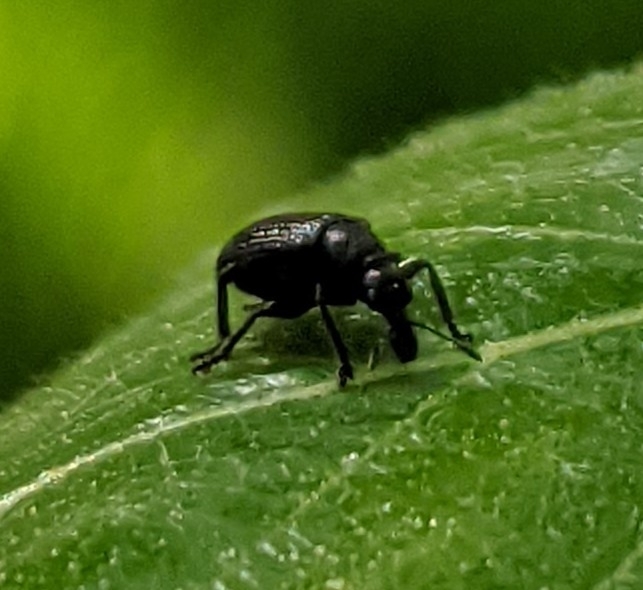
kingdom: Animalia
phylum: Arthropoda
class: Insecta
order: Coleoptera
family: Attelabidae
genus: Deporaus
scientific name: Deporaus betulae
